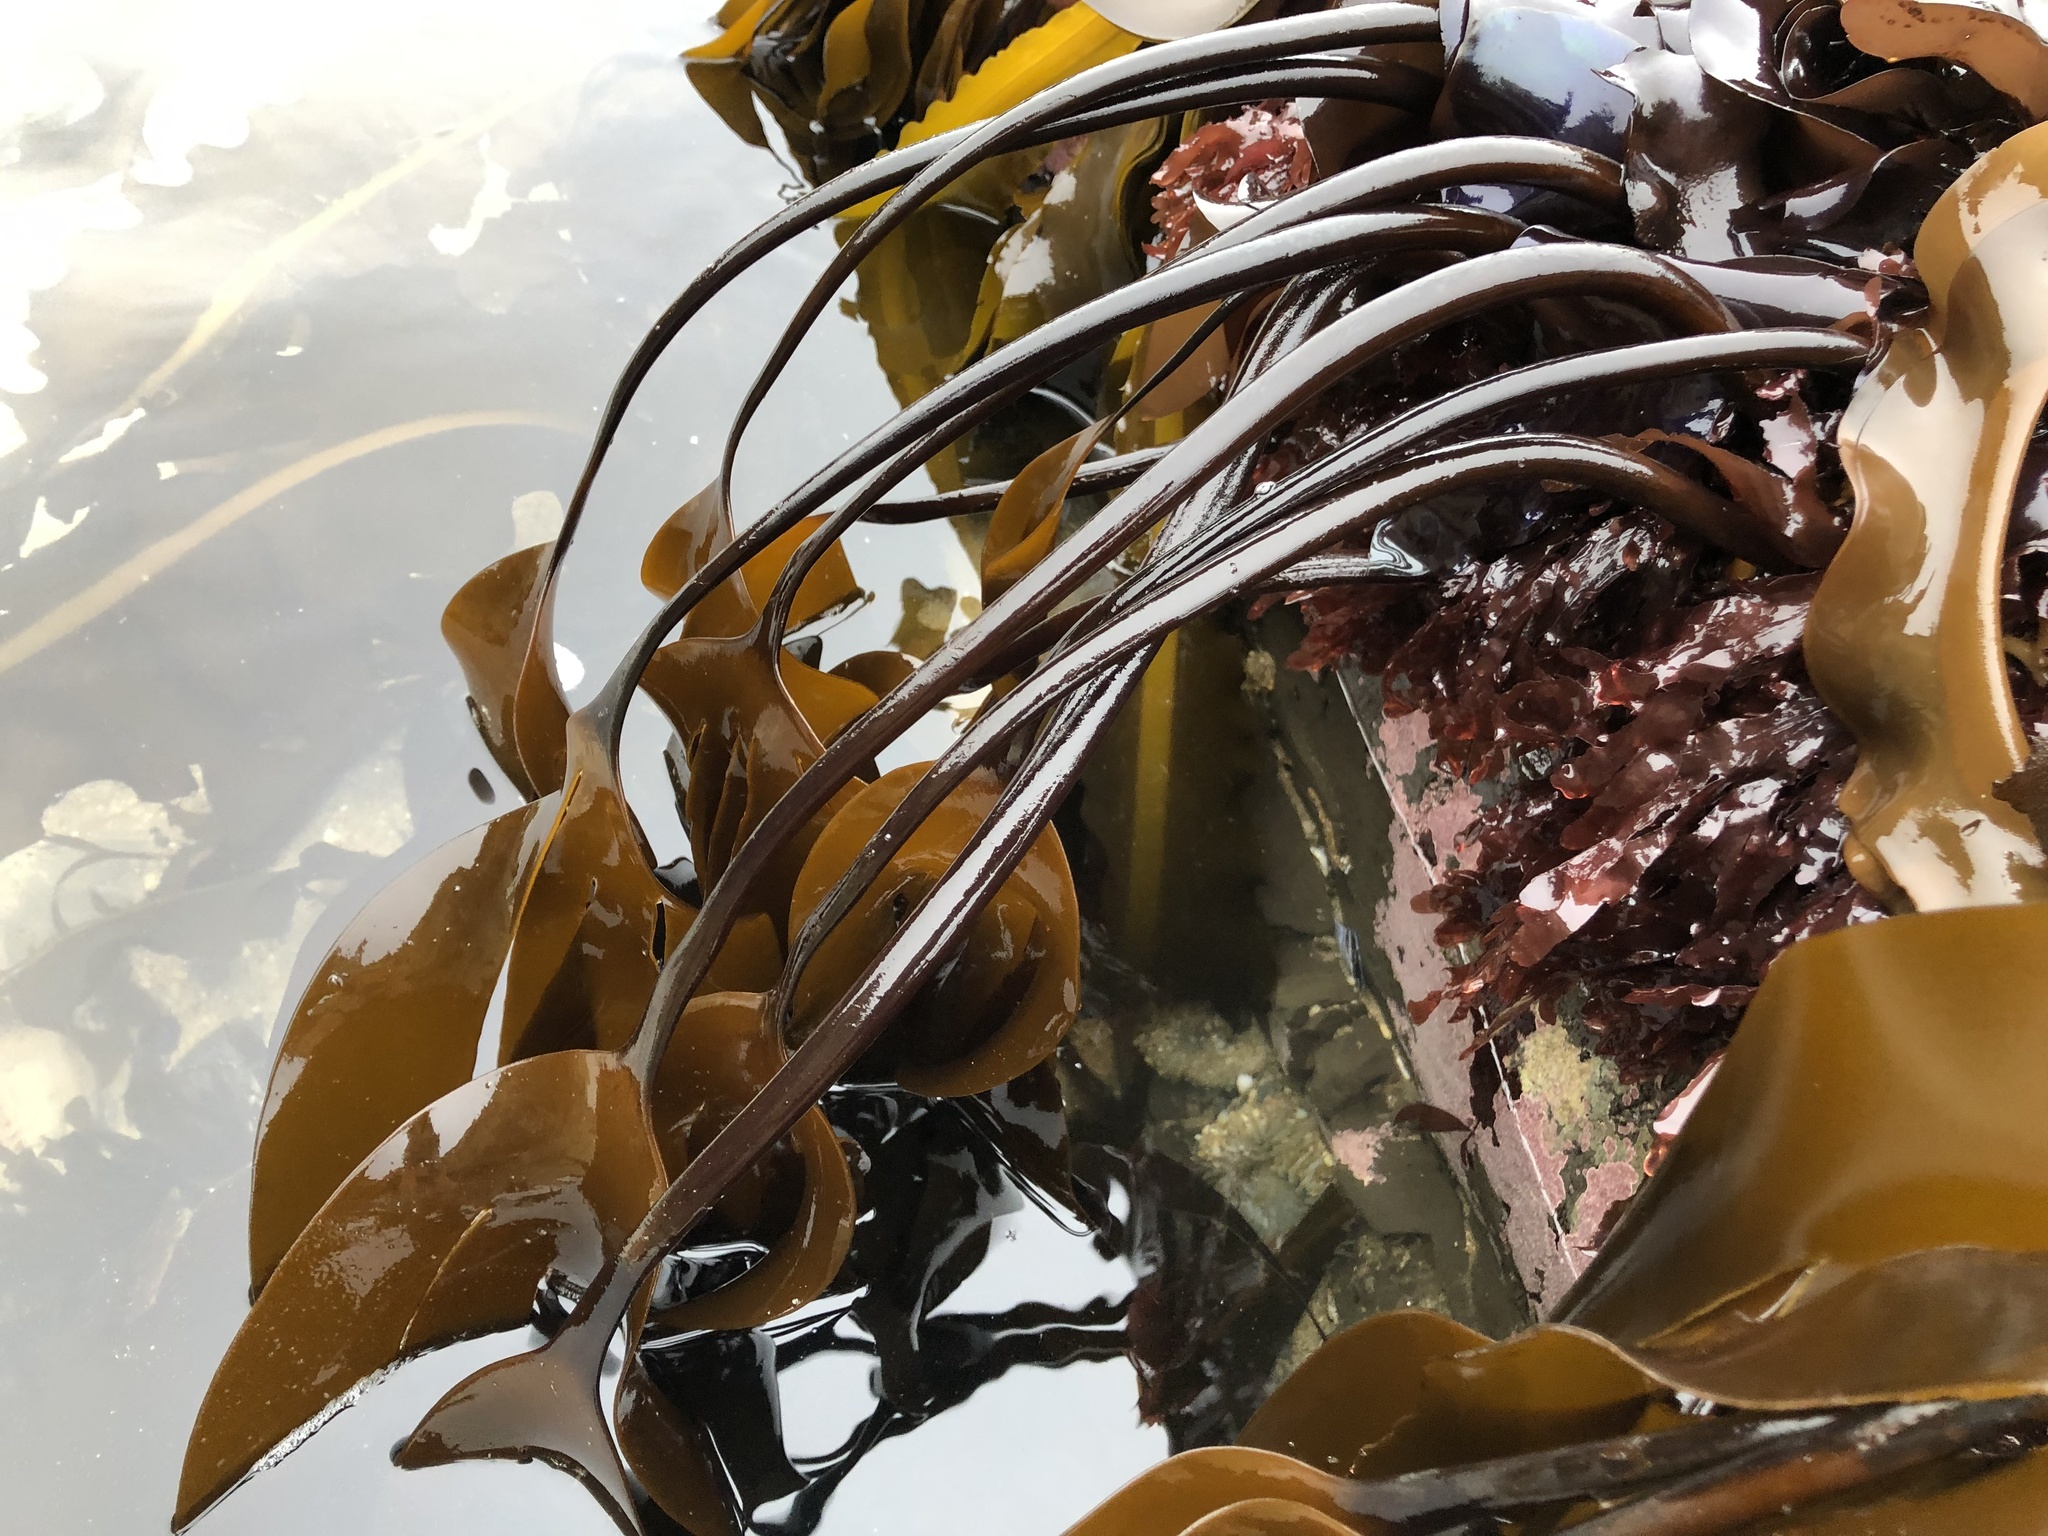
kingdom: Chromista
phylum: Ochrophyta
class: Phaeophyceae
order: Laminariales
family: Laminariaceae
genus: Laminaria
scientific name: Laminaria setchellii
